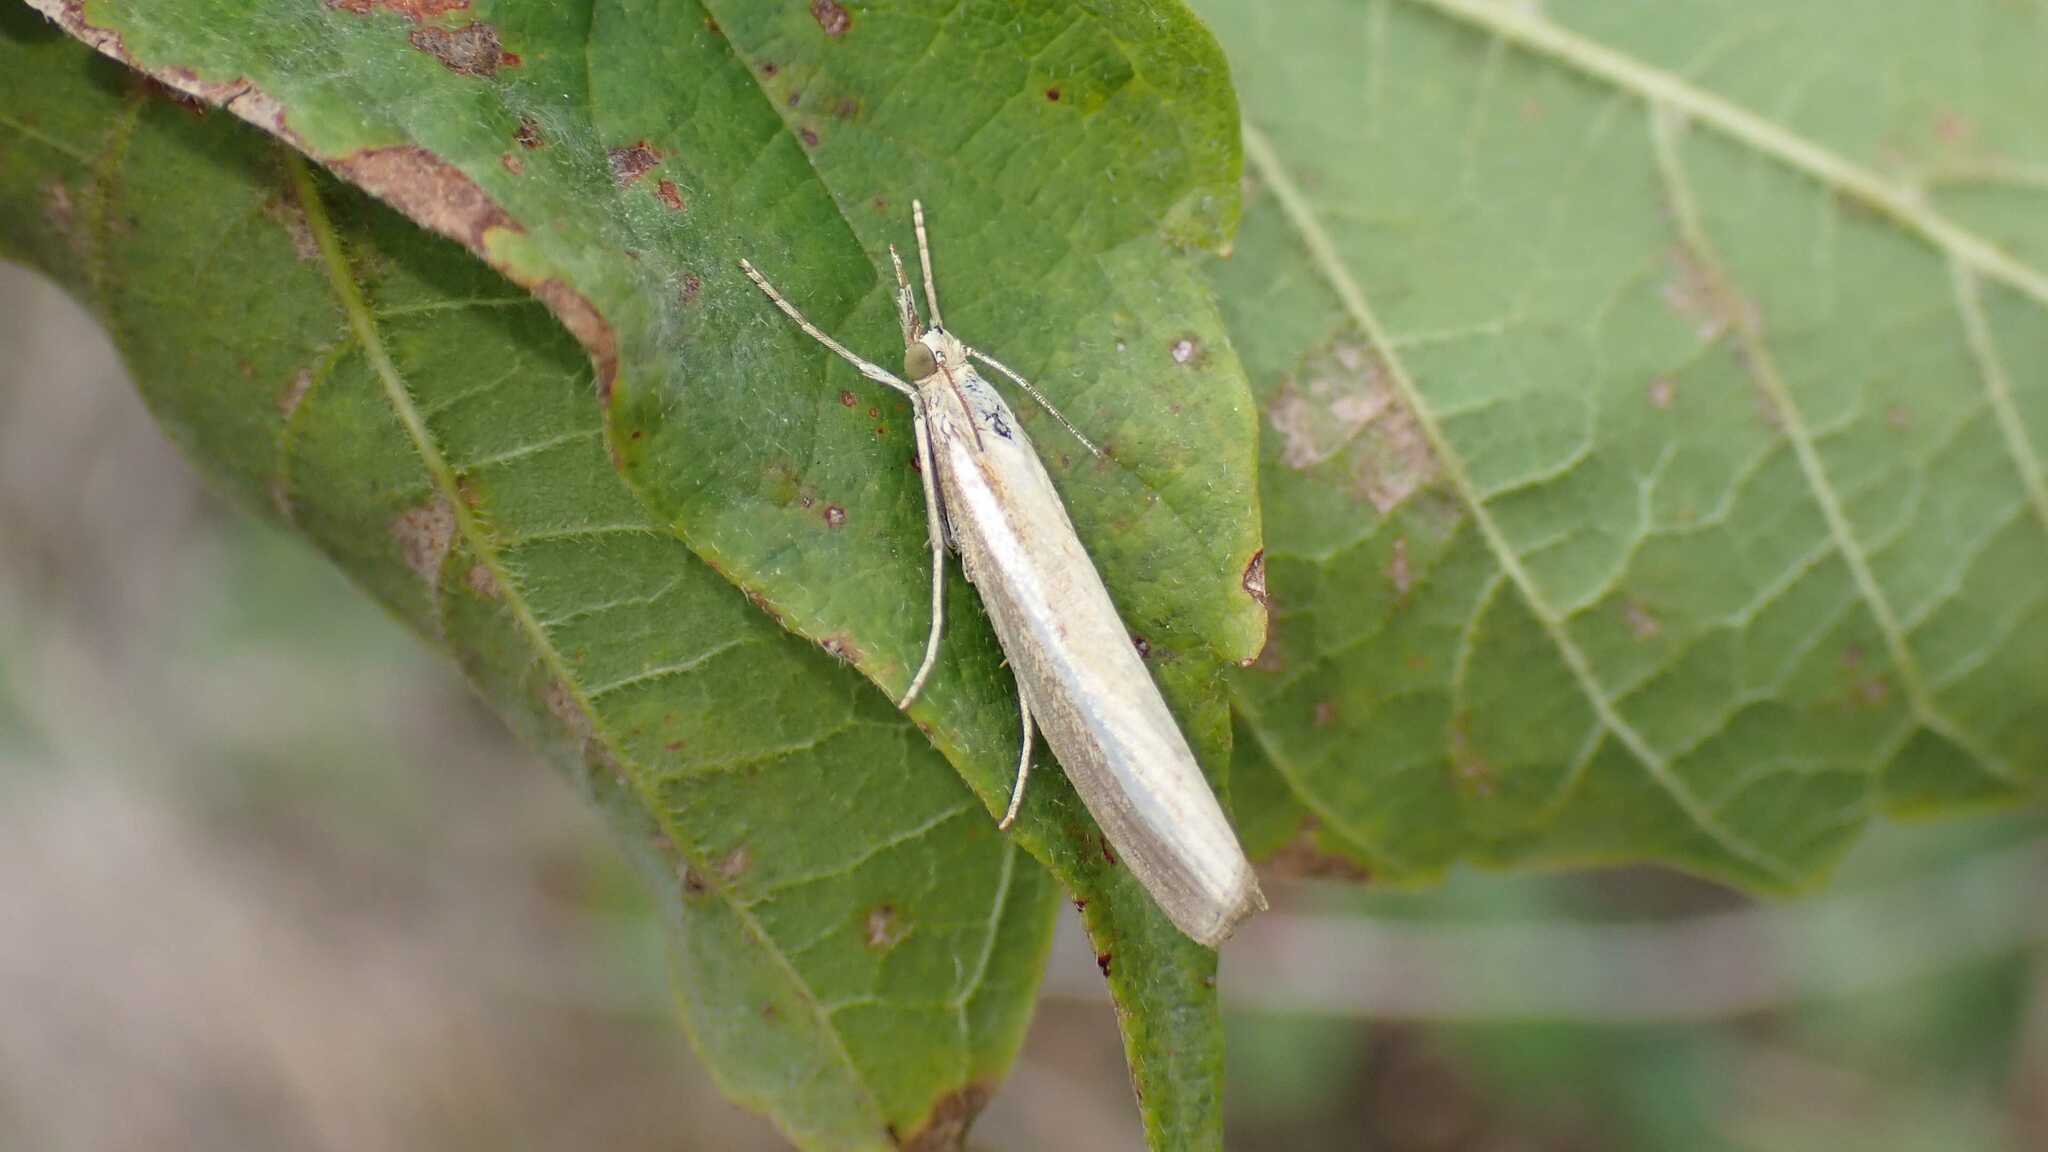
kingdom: Animalia
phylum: Arthropoda
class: Insecta
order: Lepidoptera
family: Crambidae
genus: Agriphila
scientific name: Agriphila tristellus
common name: Common grass-veneer
